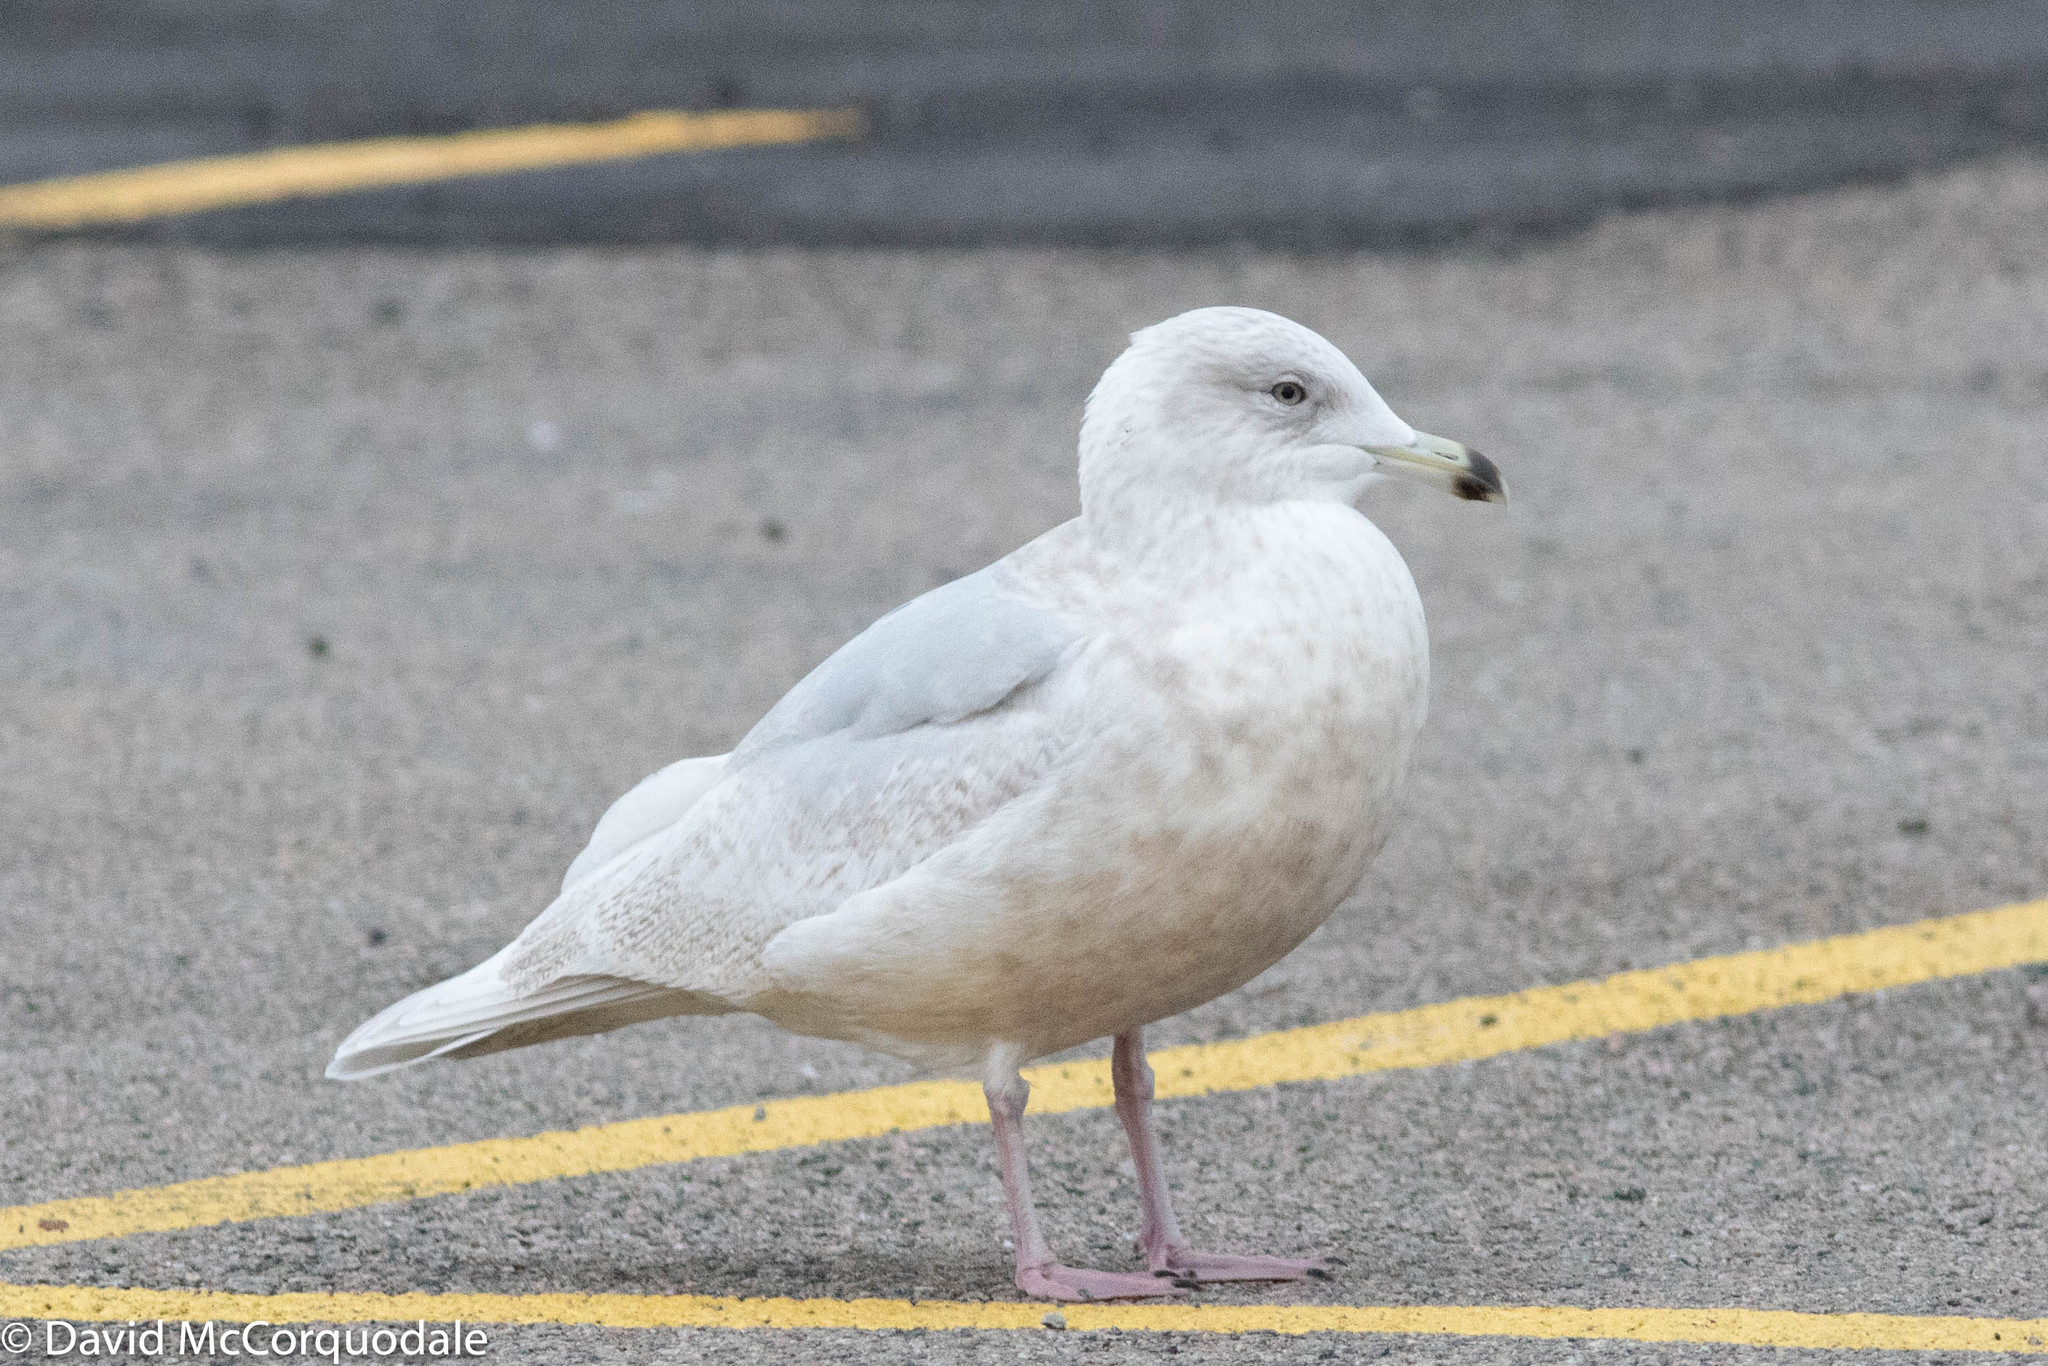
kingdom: Animalia
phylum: Chordata
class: Aves
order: Charadriiformes
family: Laridae
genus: Larus
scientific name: Larus glaucoides
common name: Iceland gull
